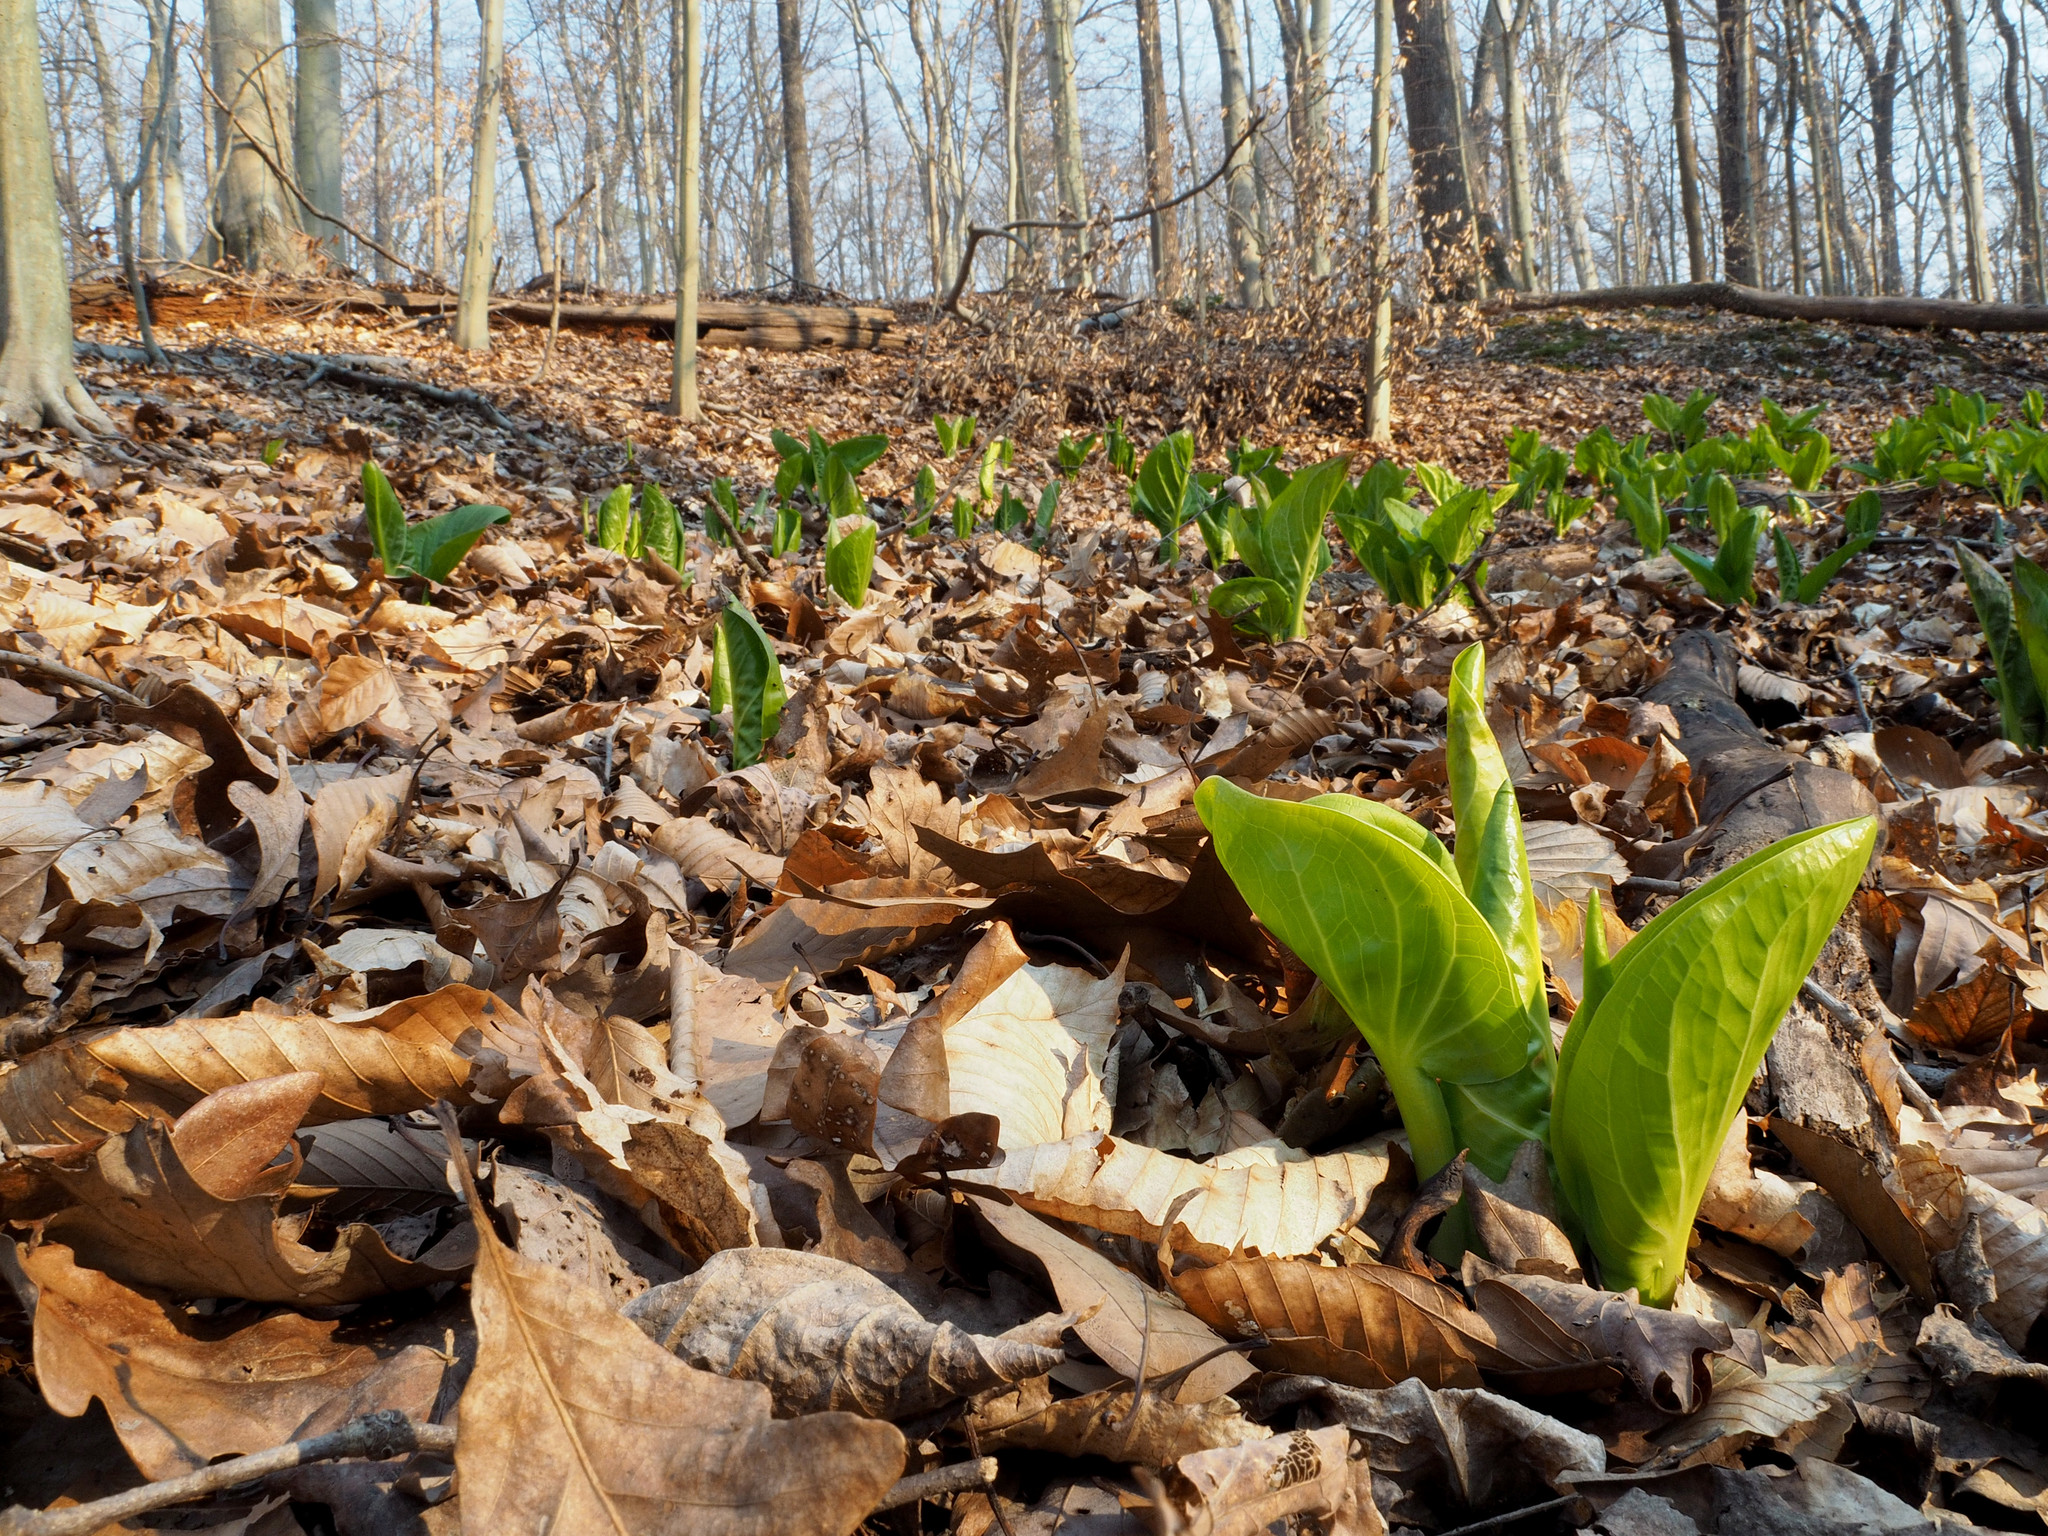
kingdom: Plantae
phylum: Tracheophyta
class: Liliopsida
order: Alismatales
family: Araceae
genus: Symplocarpus
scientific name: Symplocarpus foetidus
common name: Eastern skunk cabbage
